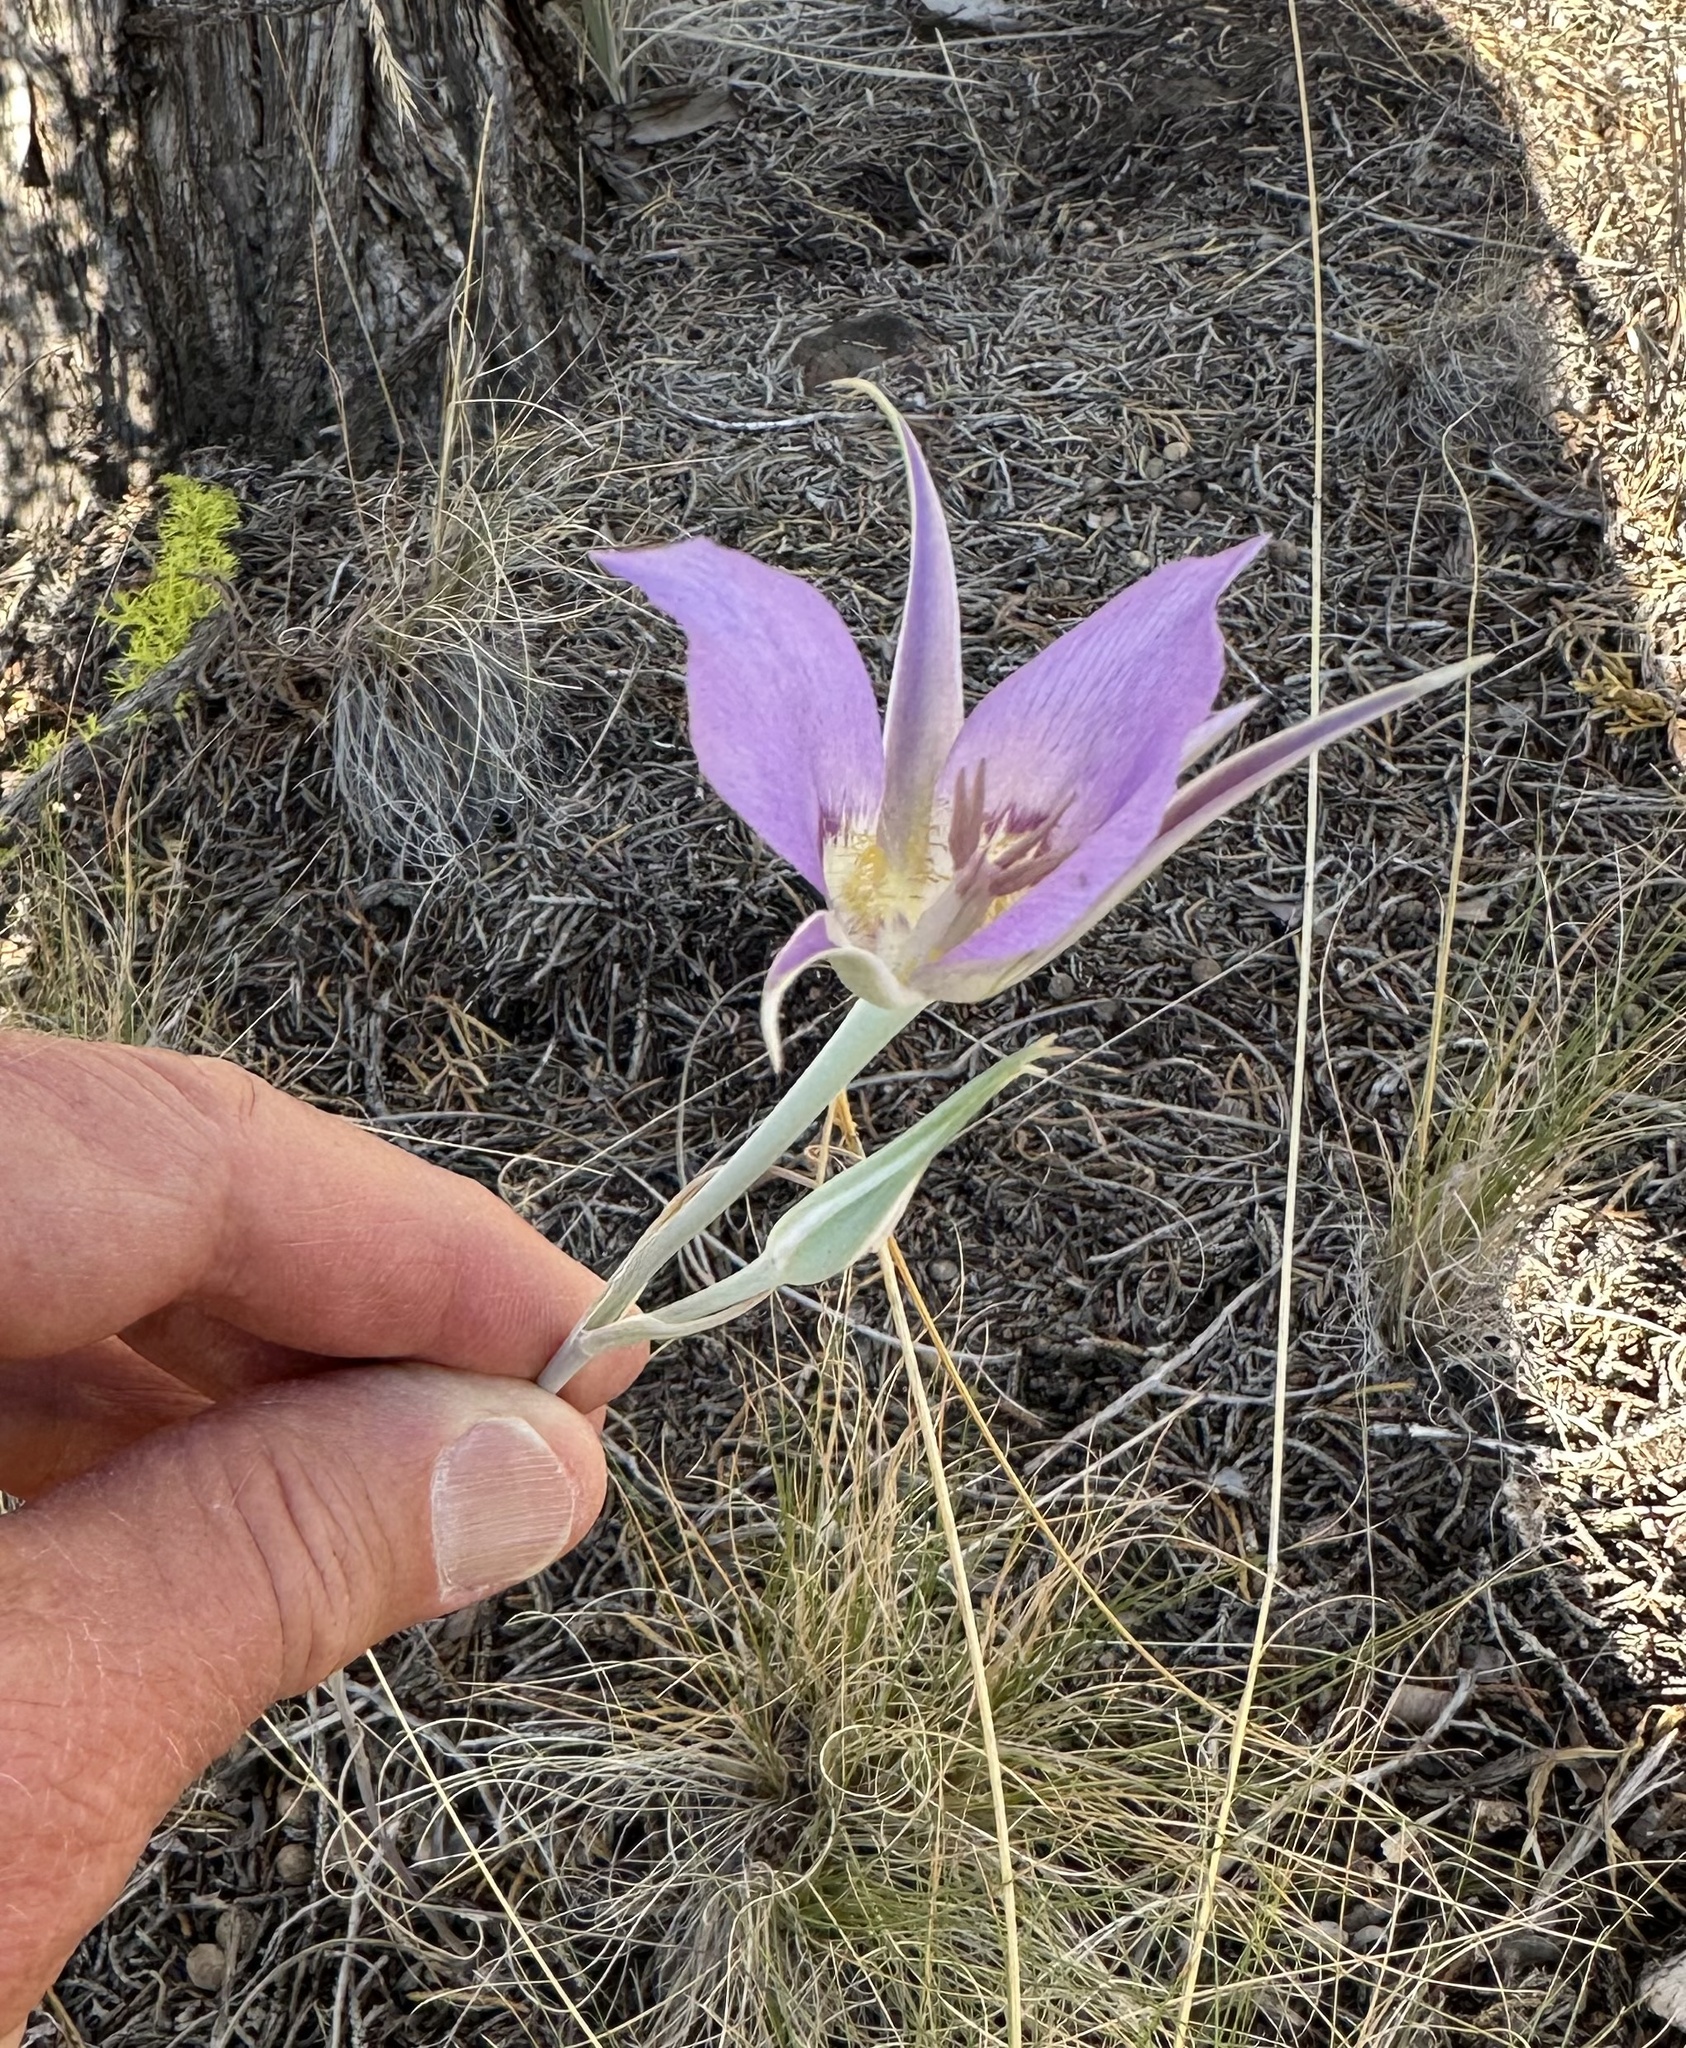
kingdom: Plantae
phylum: Tracheophyta
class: Liliopsida
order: Liliales
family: Liliaceae
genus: Calochortus
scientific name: Calochortus macrocarpus
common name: Green-band mariposa lily
